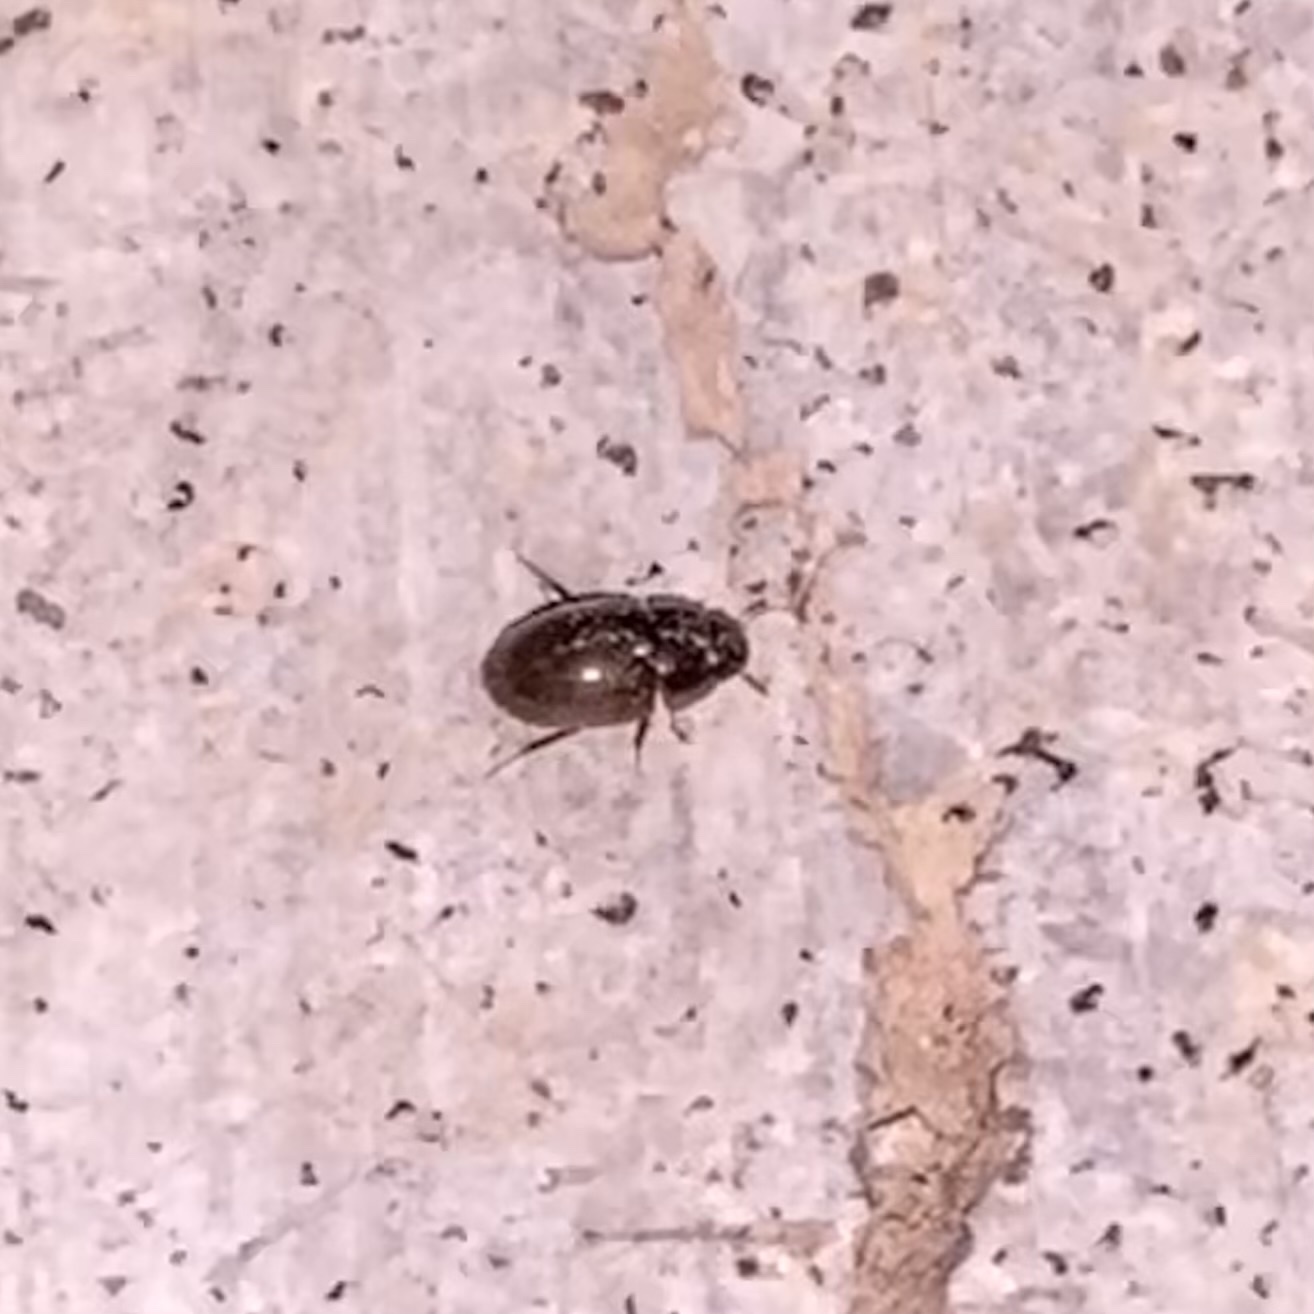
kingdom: Animalia
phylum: Arthropoda
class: Insecta
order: Coleoptera
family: Hydrophilidae
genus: Enochrus
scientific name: Enochrus
